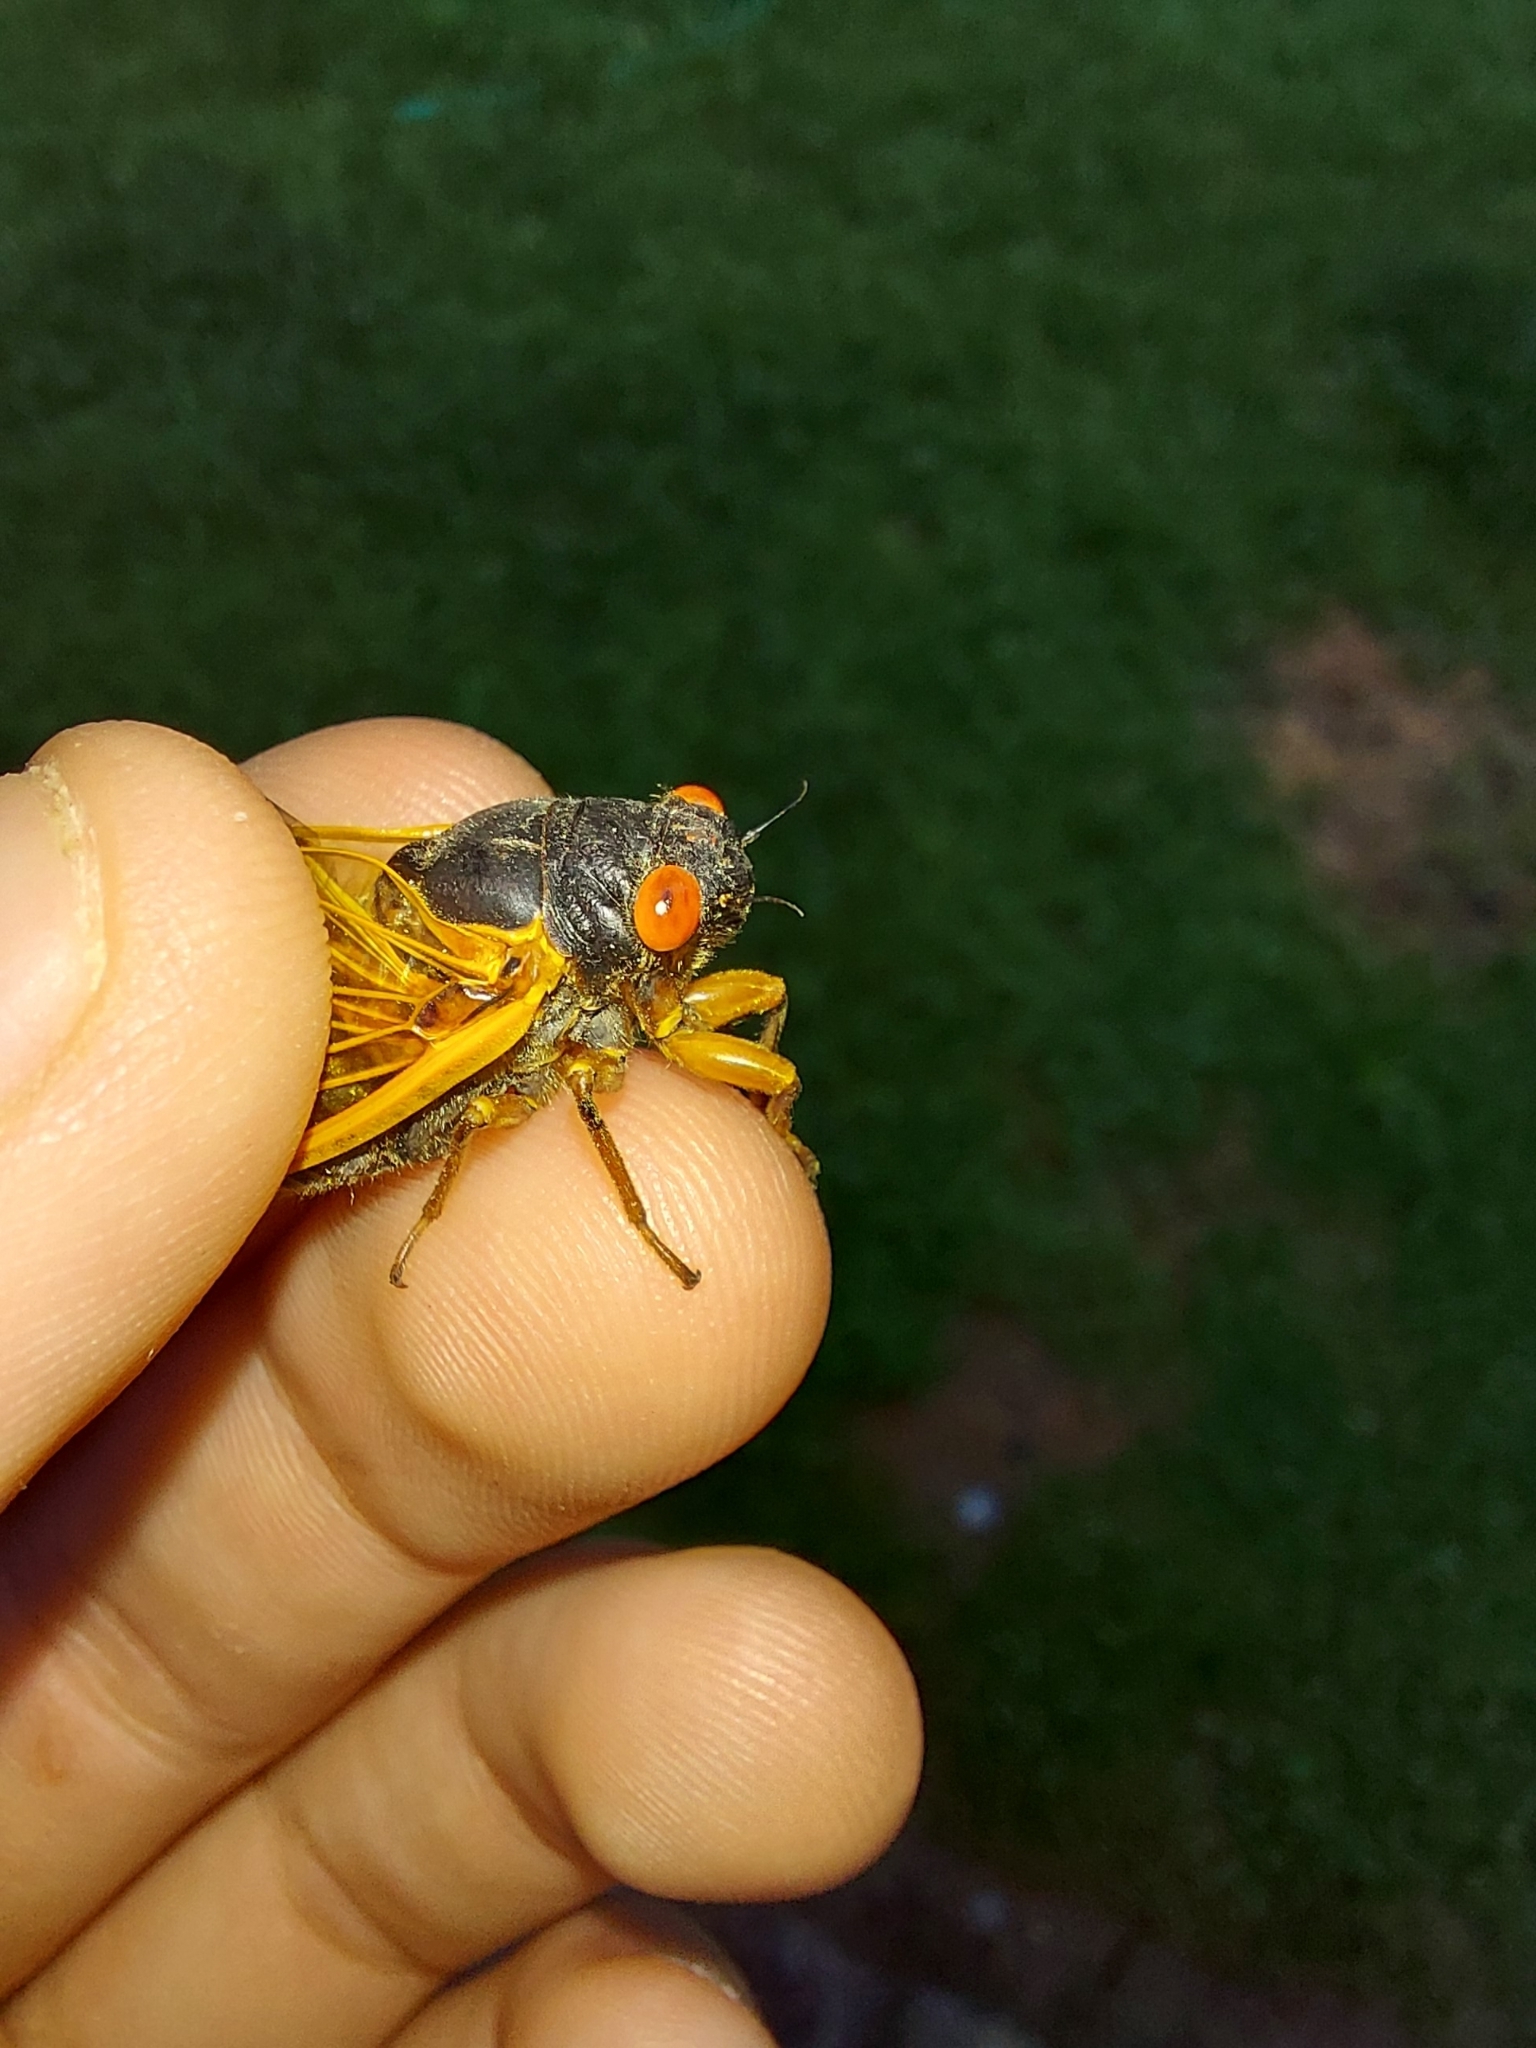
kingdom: Animalia
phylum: Arthropoda
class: Insecta
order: Hemiptera
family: Cicadidae
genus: Magicicada
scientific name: Magicicada septendecula
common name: Decula periodical cicada
